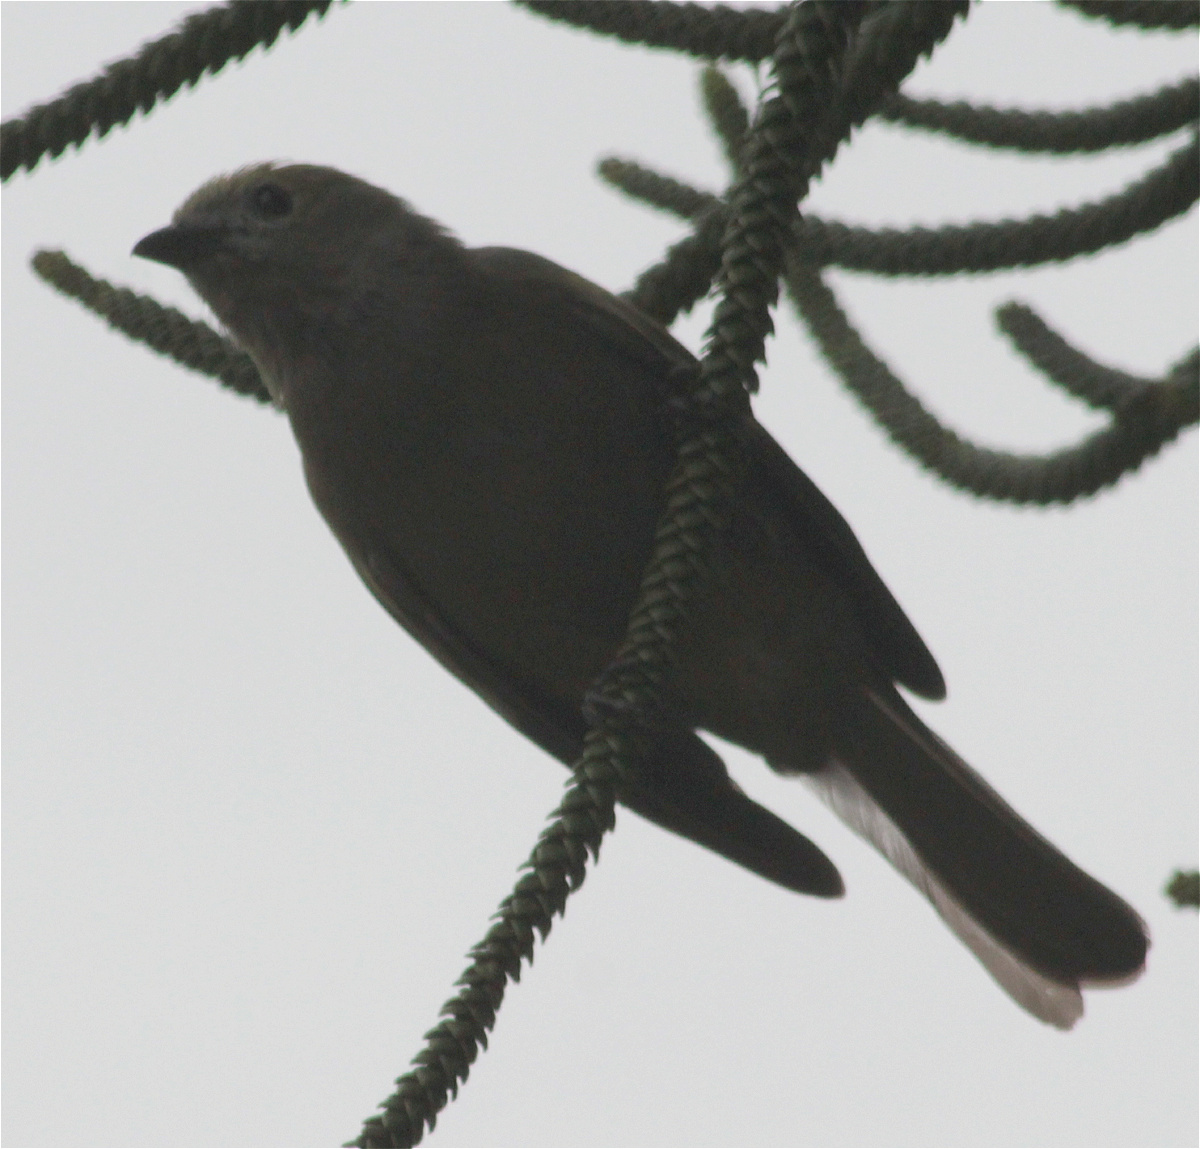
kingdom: Animalia
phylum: Chordata
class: Aves
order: Passeriformes
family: Thraupidae
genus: Thraupis
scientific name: Thraupis palmarum
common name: Palm tanager
